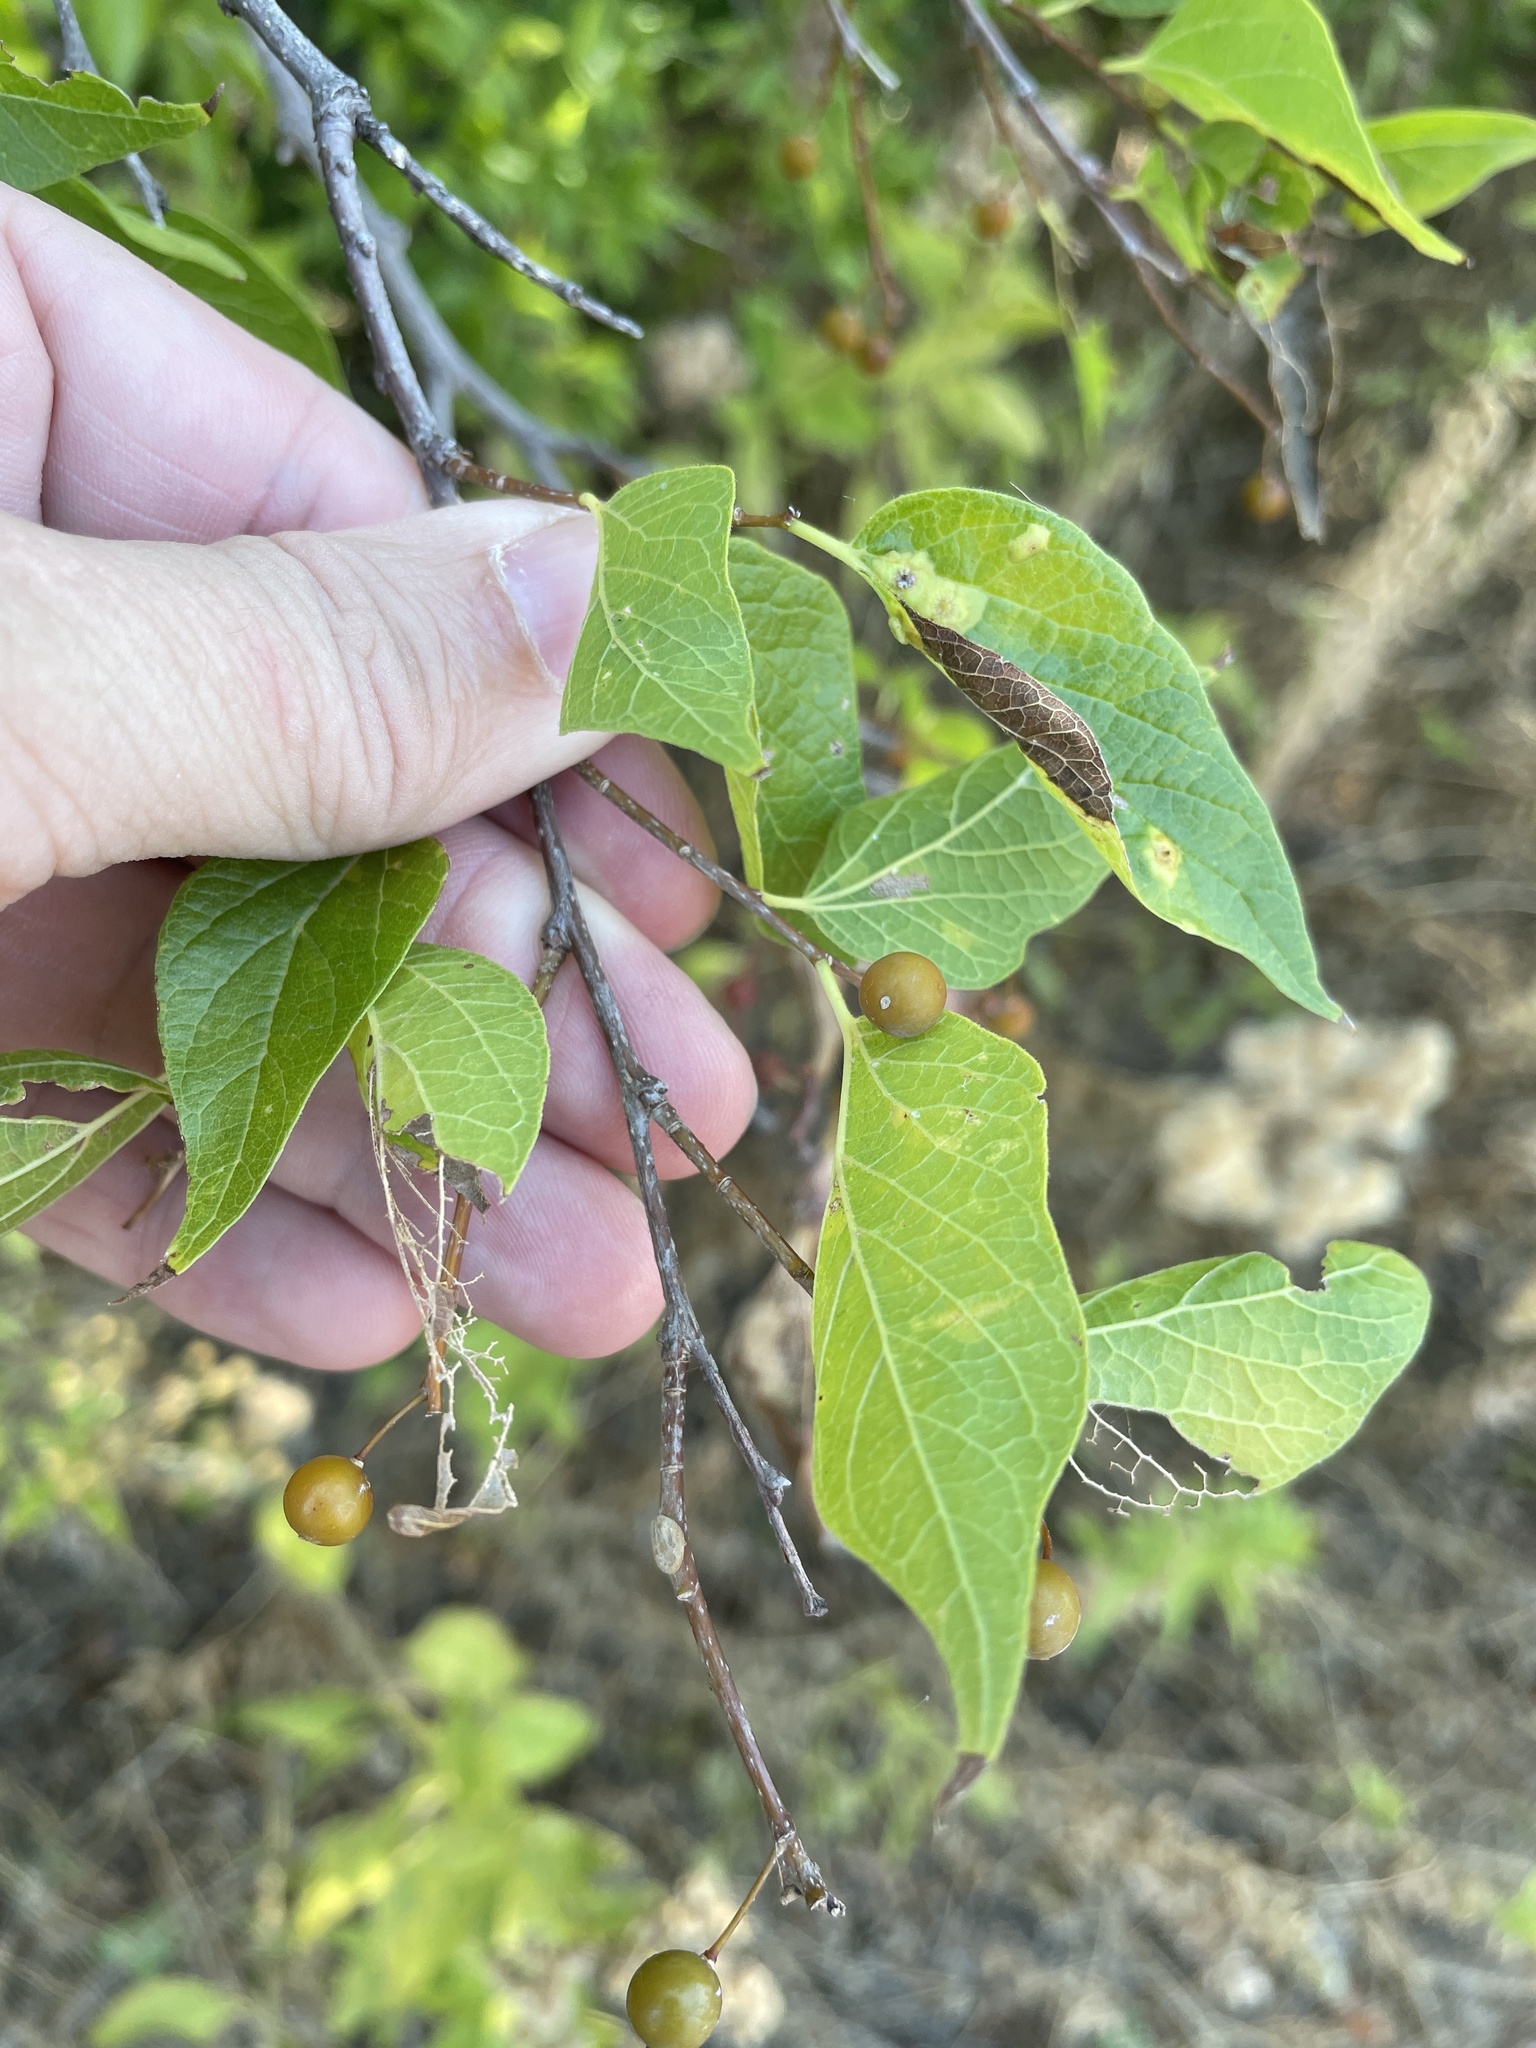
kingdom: Plantae
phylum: Tracheophyta
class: Magnoliopsida
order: Rosales
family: Cannabaceae
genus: Celtis
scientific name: Celtis laevigata
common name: Sugarberry
